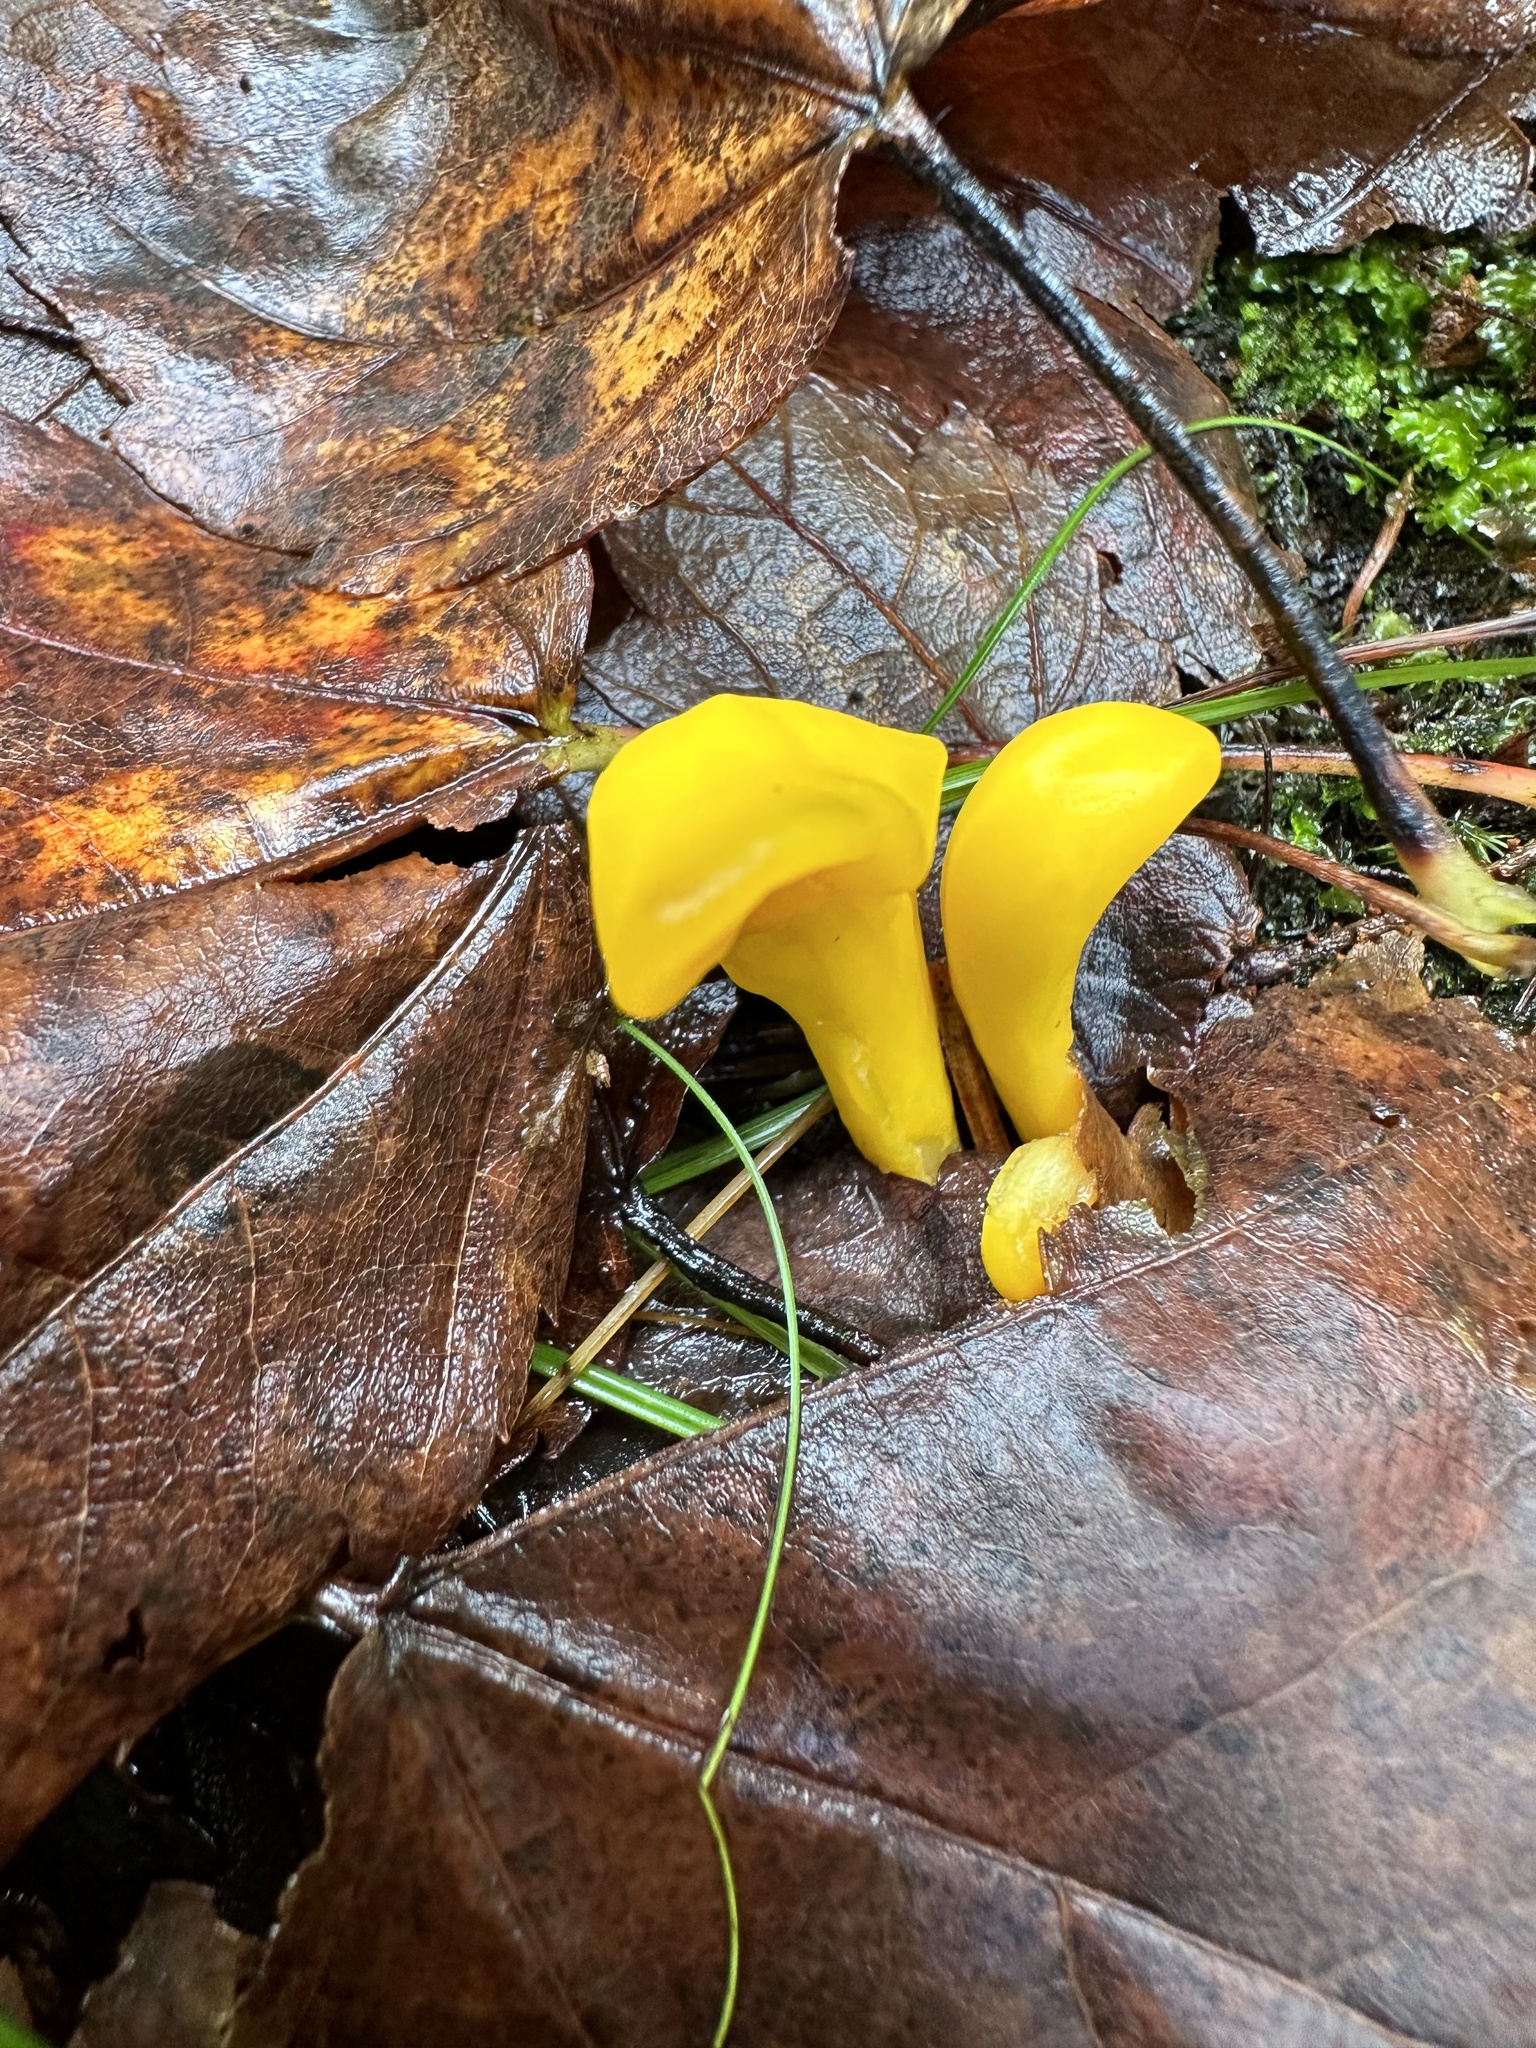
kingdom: Fungi
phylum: Ascomycota
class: Neolectomycetes
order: Neolectales
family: Neolectaceae
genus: Neolecta
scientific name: Neolecta irregularis
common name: Irregular earth tongue
